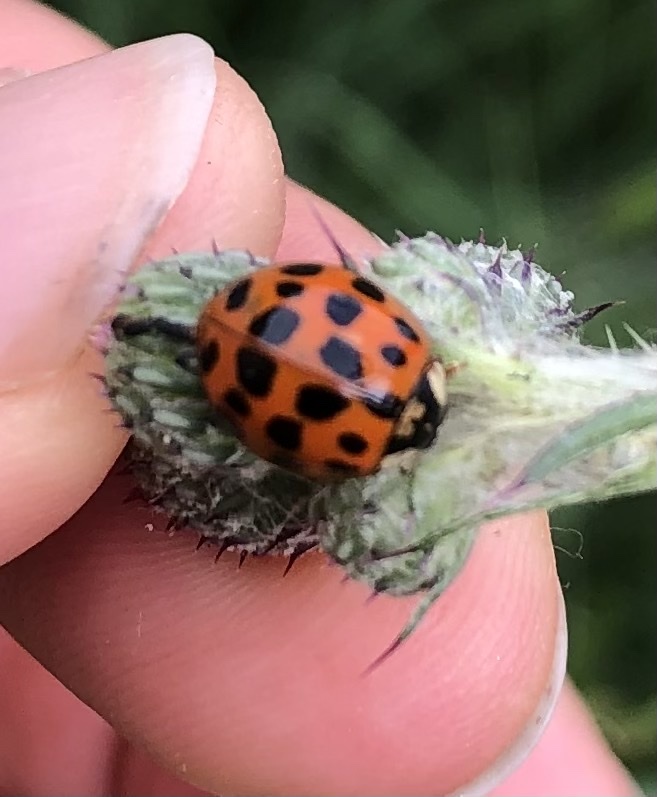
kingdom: Animalia
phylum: Arthropoda
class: Insecta
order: Coleoptera
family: Coccinellidae
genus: Harmonia
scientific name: Harmonia axyridis
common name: Harlequin ladybird
